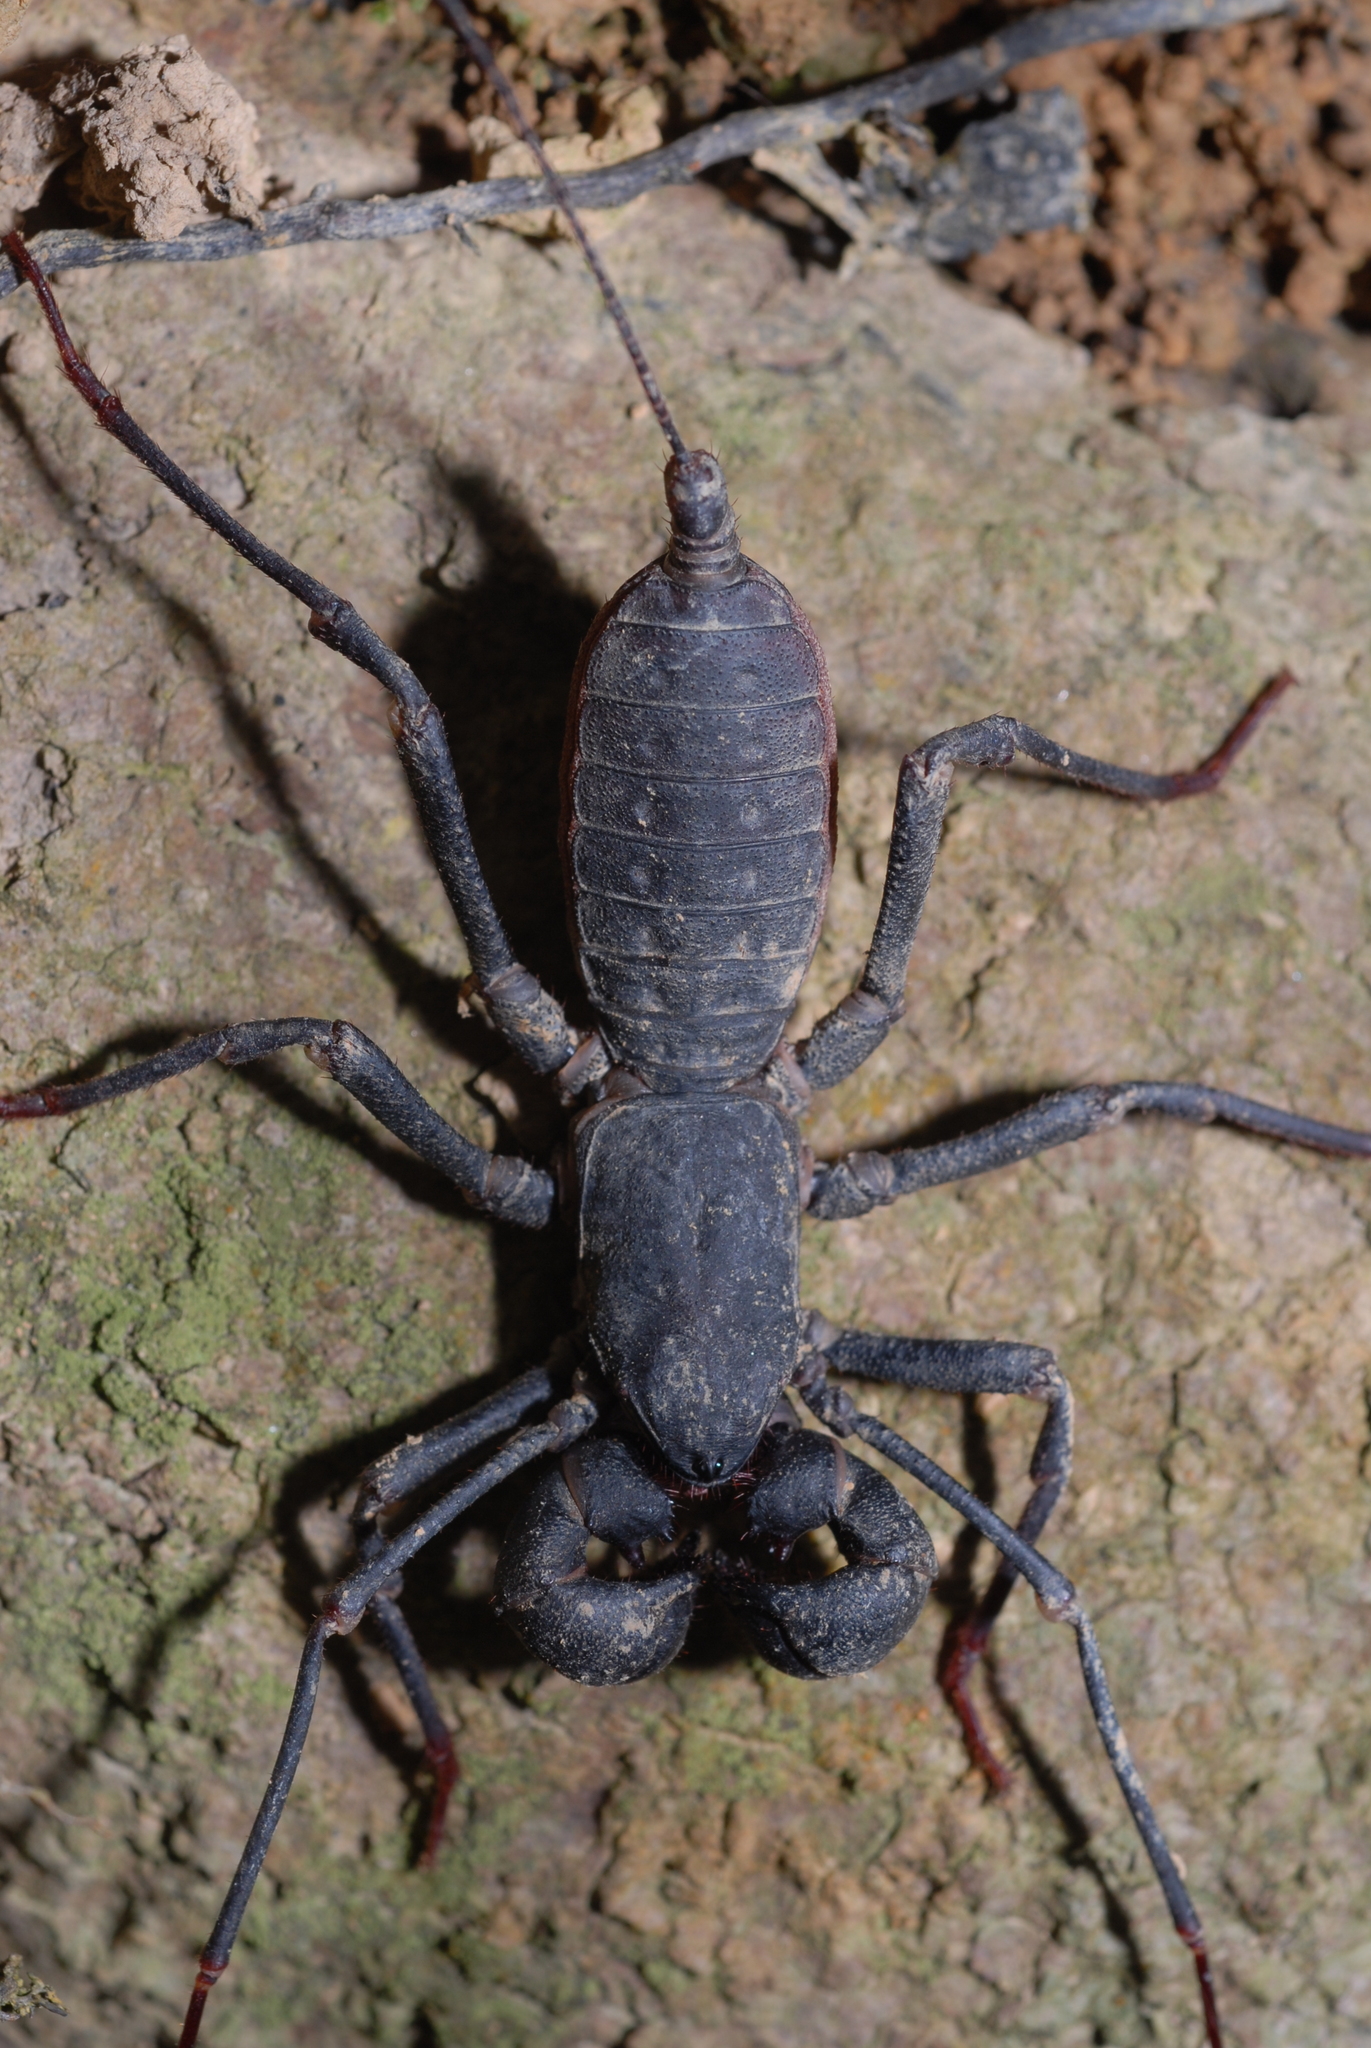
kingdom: Animalia
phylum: Arthropoda
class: Arachnida
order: Uropygi
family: Thelyphonidae
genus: Typopeltis
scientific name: Typopeltis crucifer
